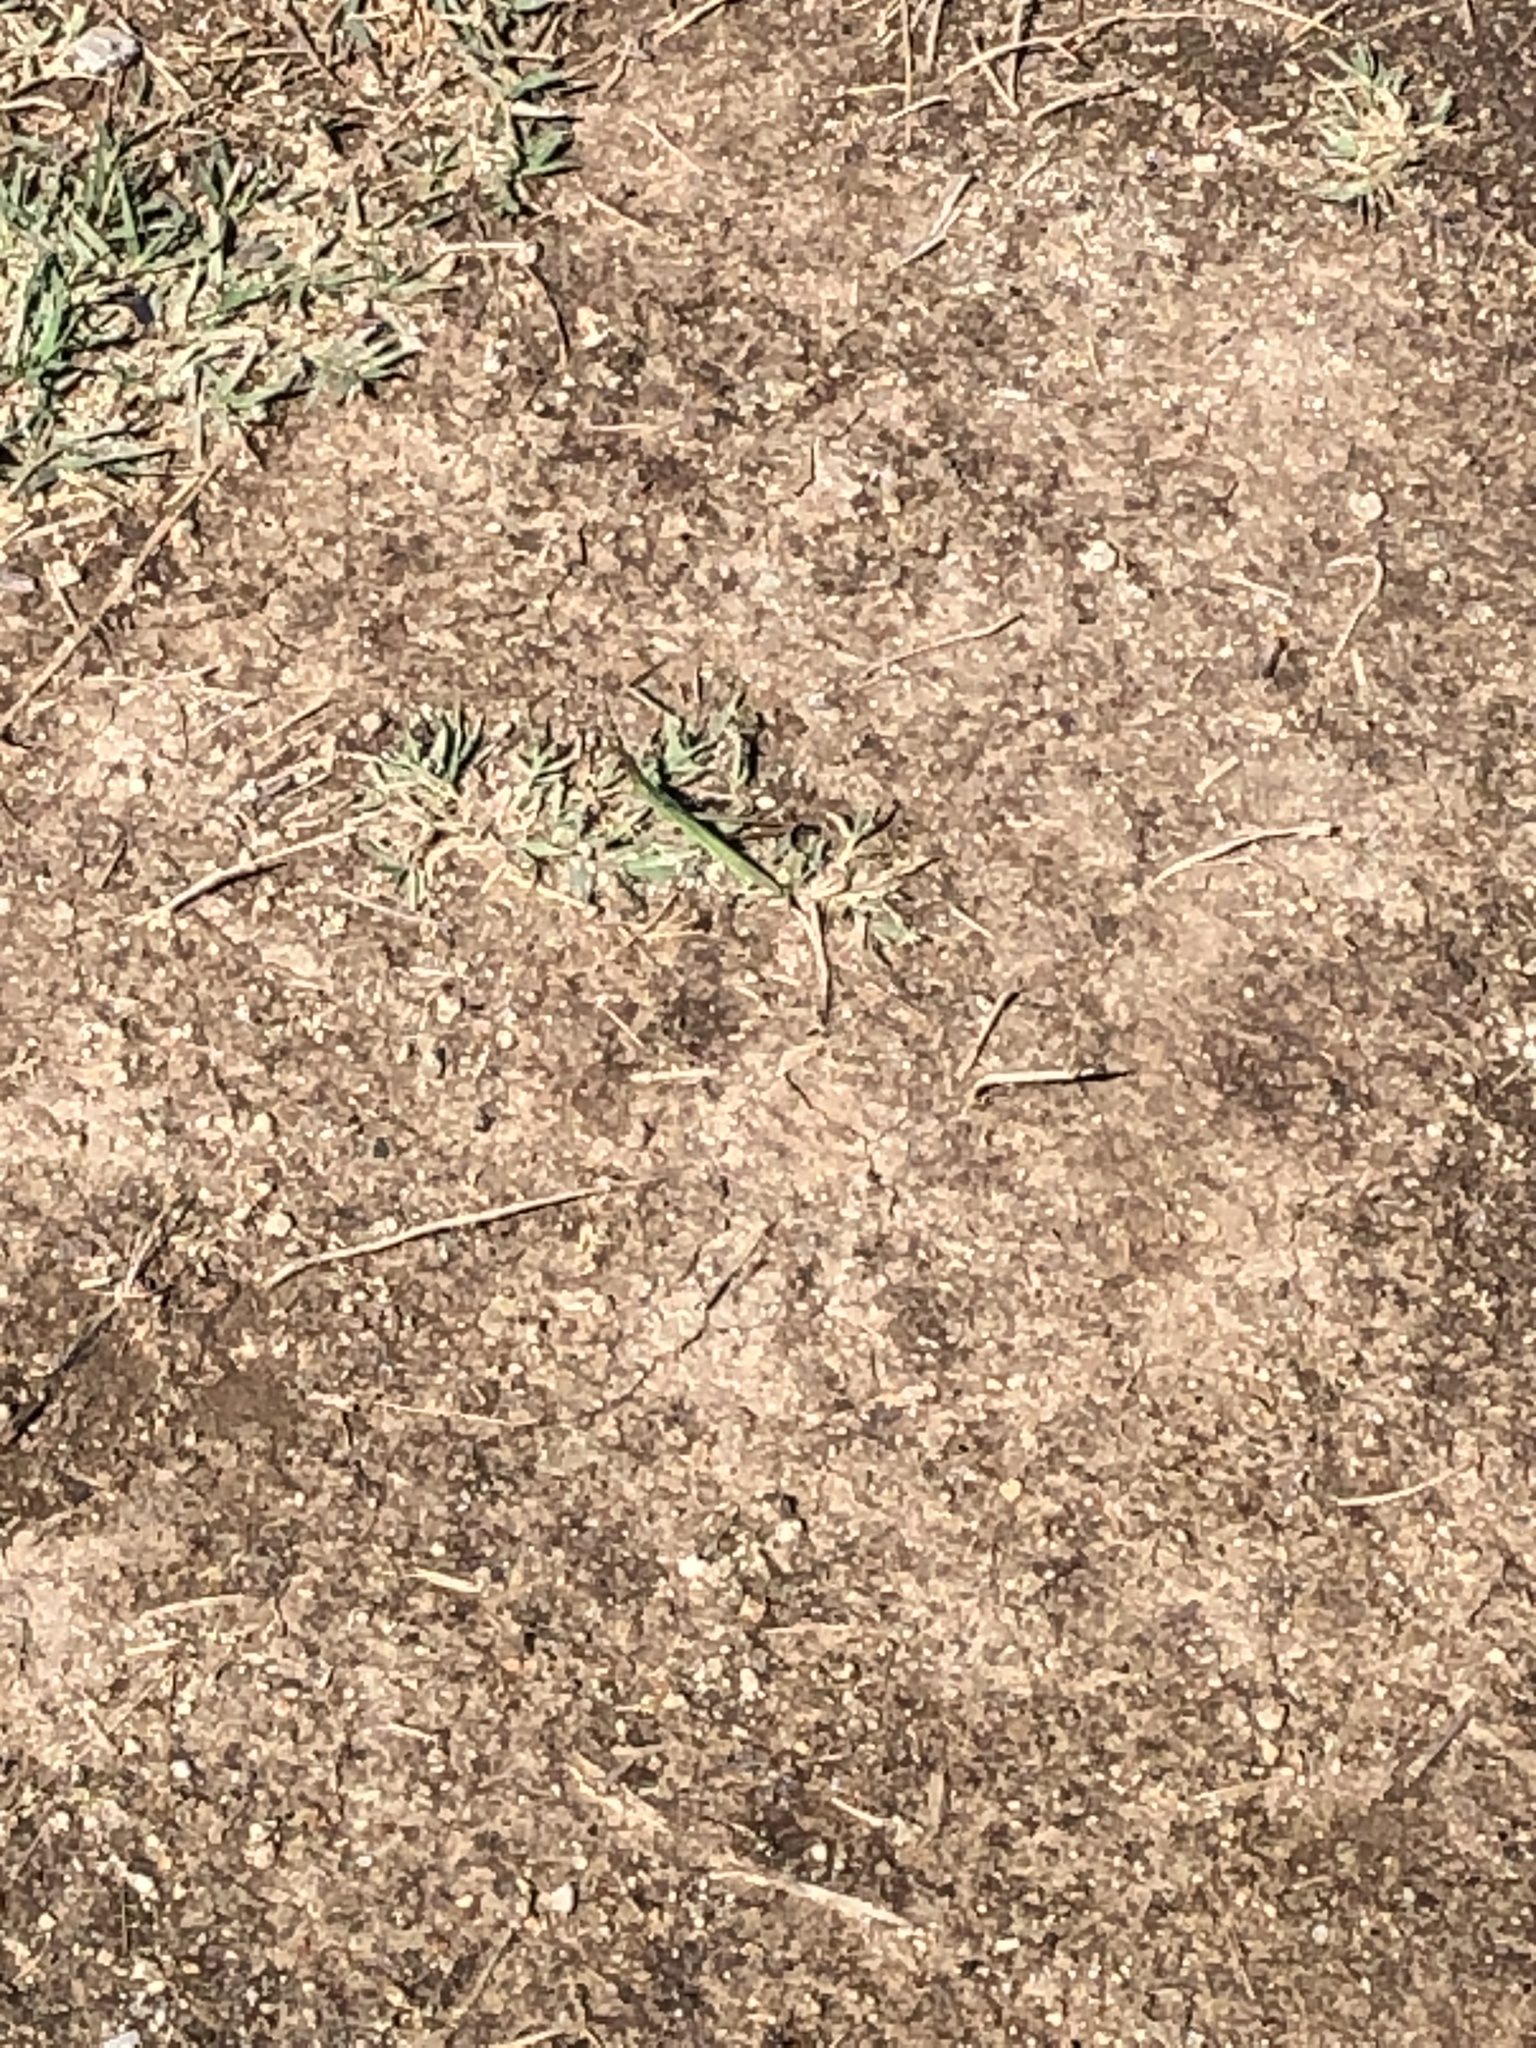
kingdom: Animalia
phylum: Arthropoda
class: Insecta
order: Orthoptera
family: Acrididae
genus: Acrida
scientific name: Acrida ungarica
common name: Common cone-headed grasshopper
